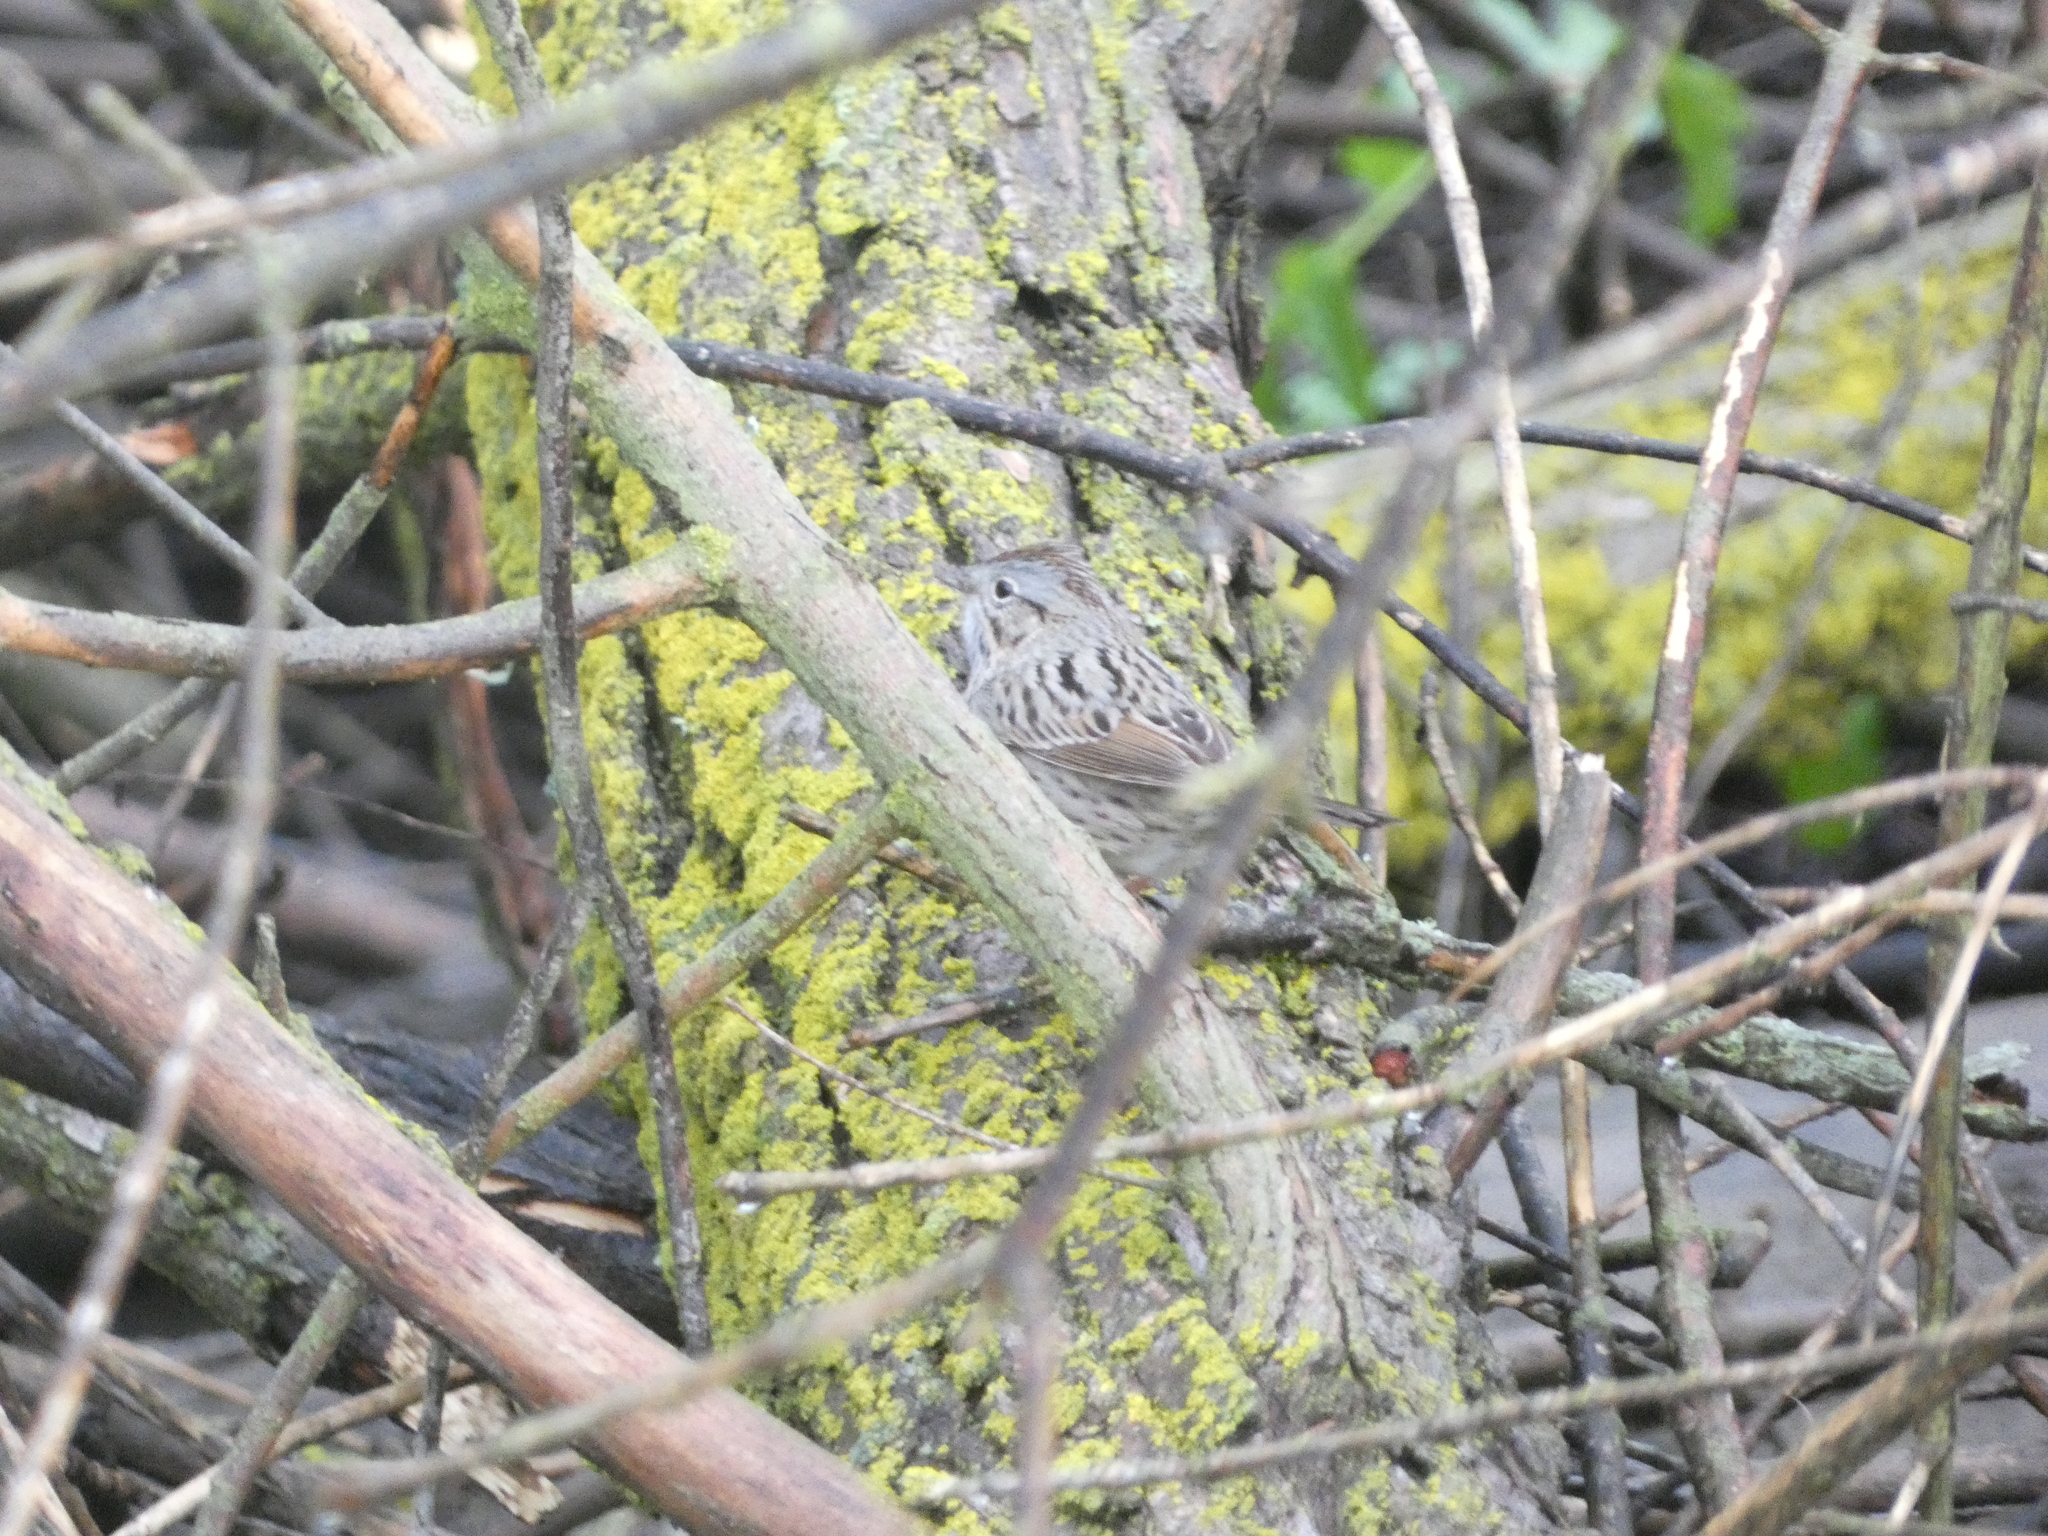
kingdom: Animalia
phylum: Chordata
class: Aves
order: Passeriformes
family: Passerellidae
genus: Melospiza
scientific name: Melospiza lincolnii
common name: Lincoln's sparrow
